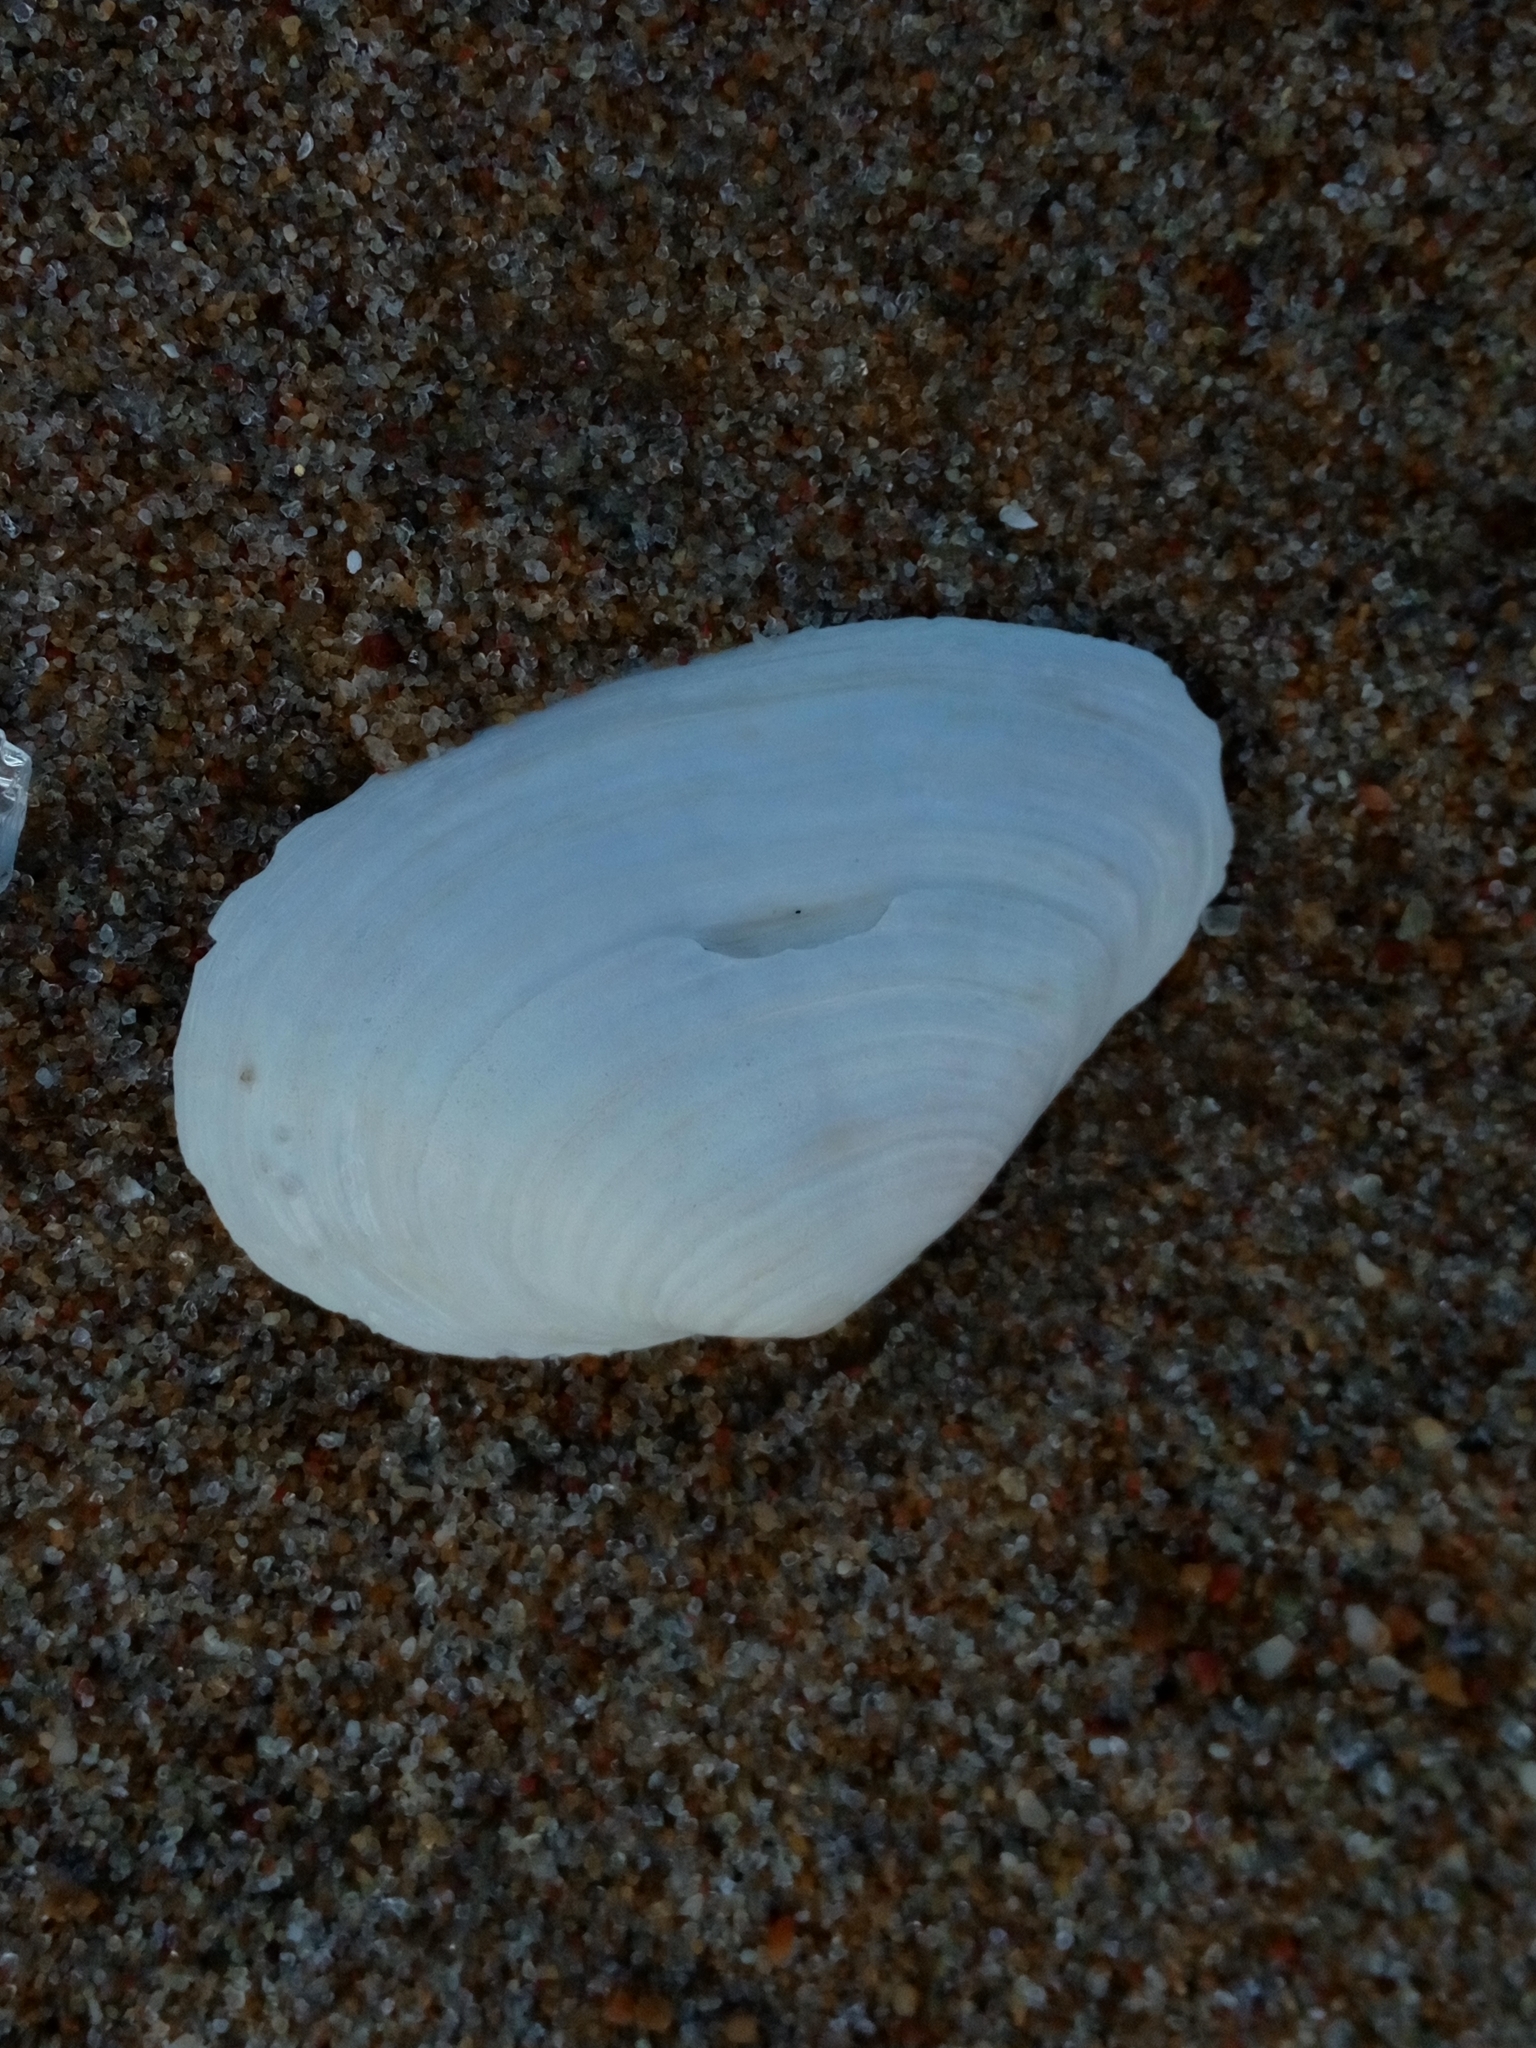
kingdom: Animalia
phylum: Mollusca
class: Bivalvia
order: Myida
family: Myidae
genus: Mya
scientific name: Mya arenaria
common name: Soft-shelled clam
